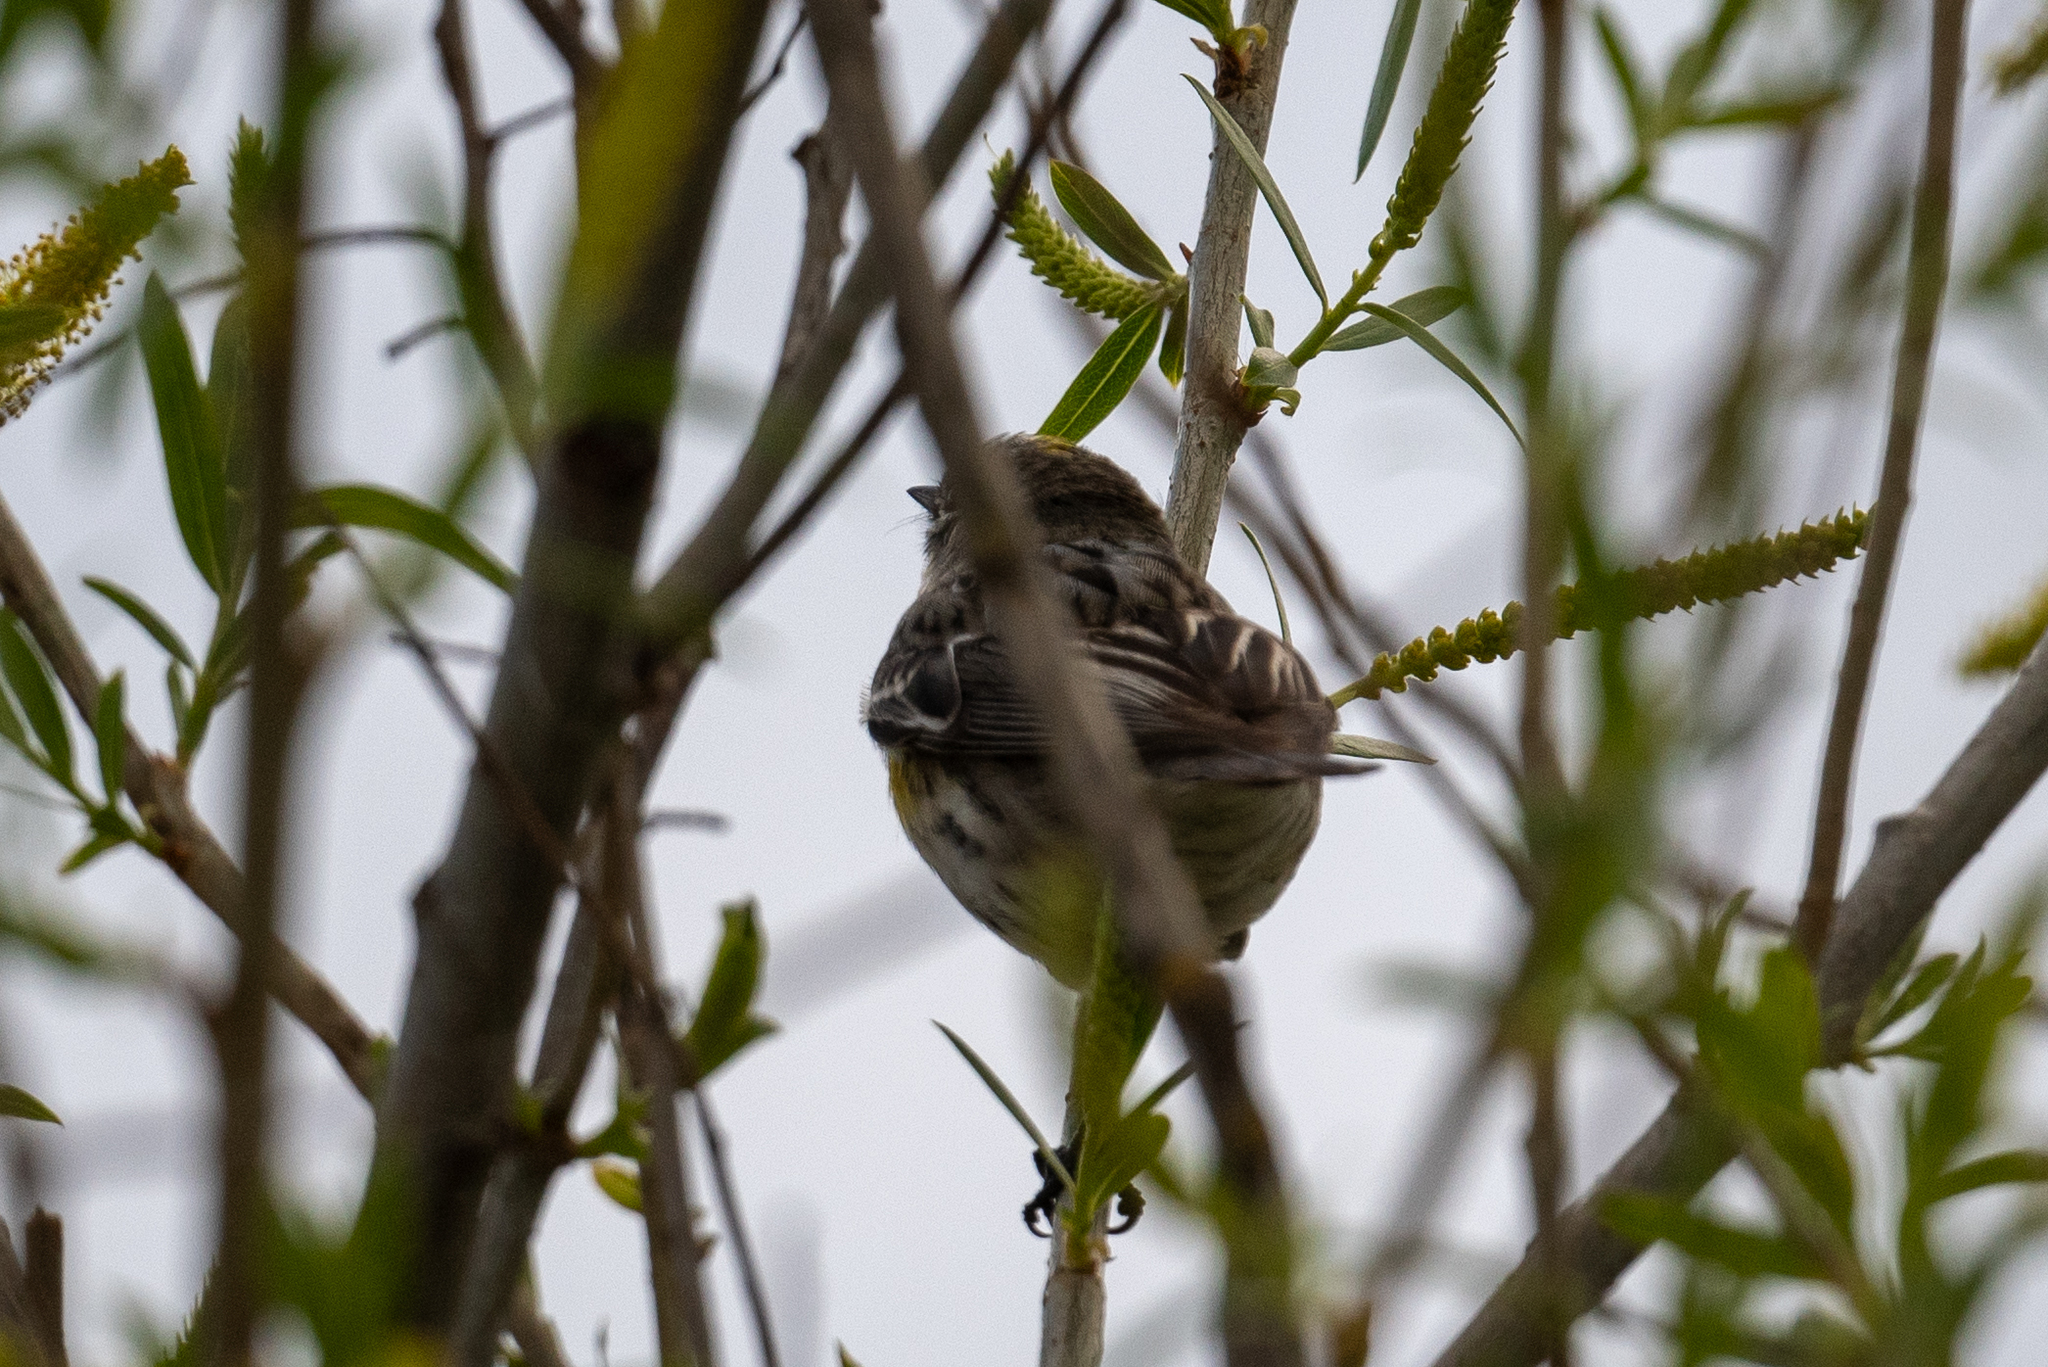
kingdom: Animalia
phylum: Chordata
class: Aves
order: Passeriformes
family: Parulidae
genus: Setophaga
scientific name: Setophaga coronata
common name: Myrtle warbler
